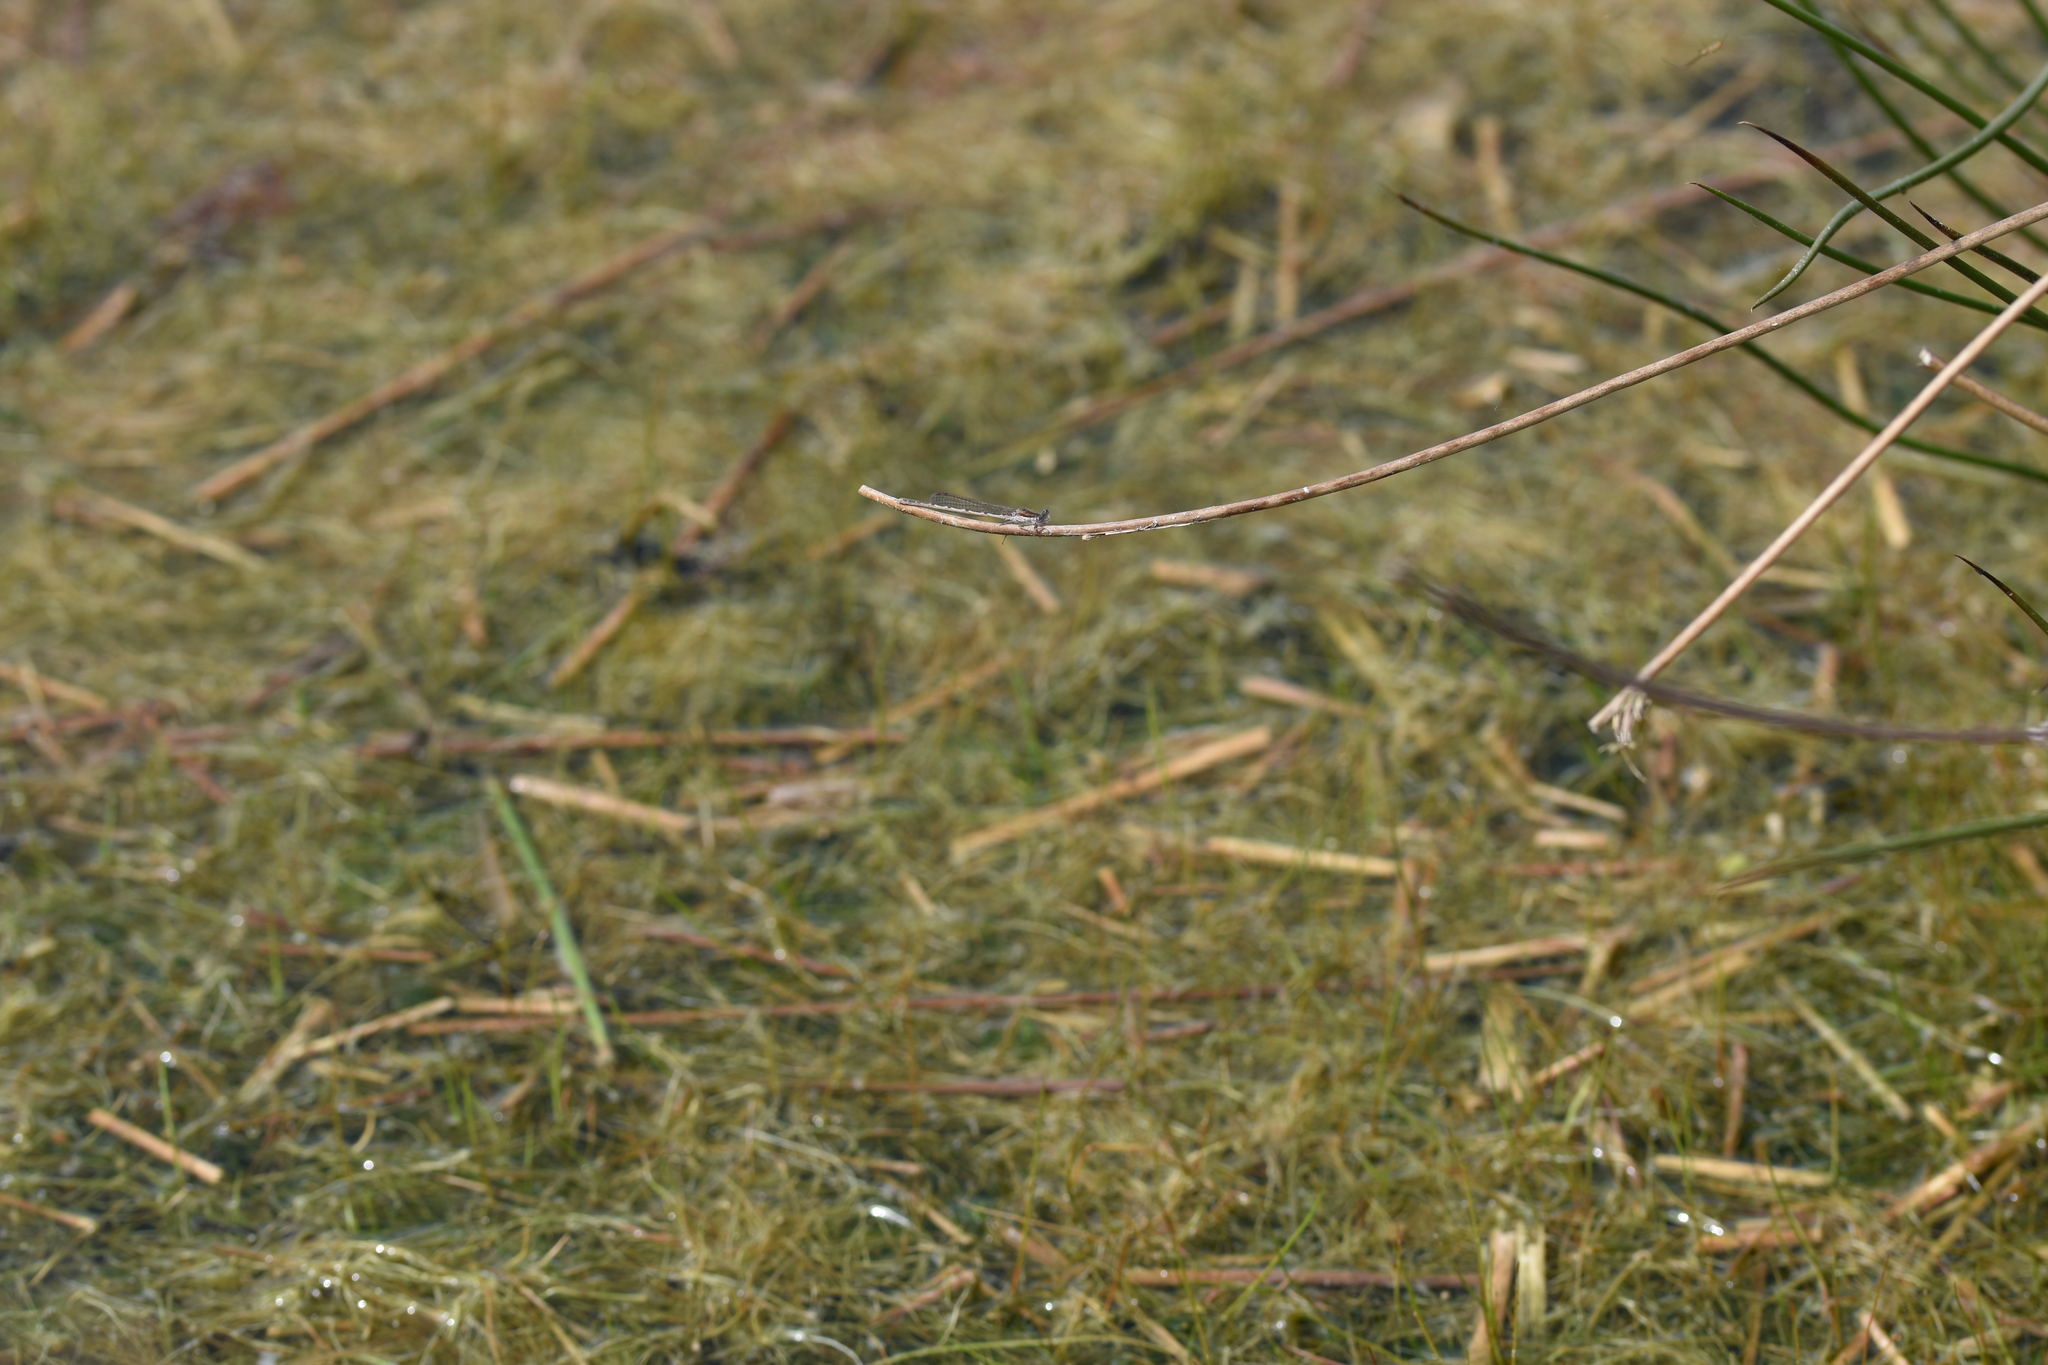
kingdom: Animalia
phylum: Arthropoda
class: Insecta
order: Odonata
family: Lestidae
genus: Sympecma
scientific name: Sympecma fusca
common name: Common winter damsel
